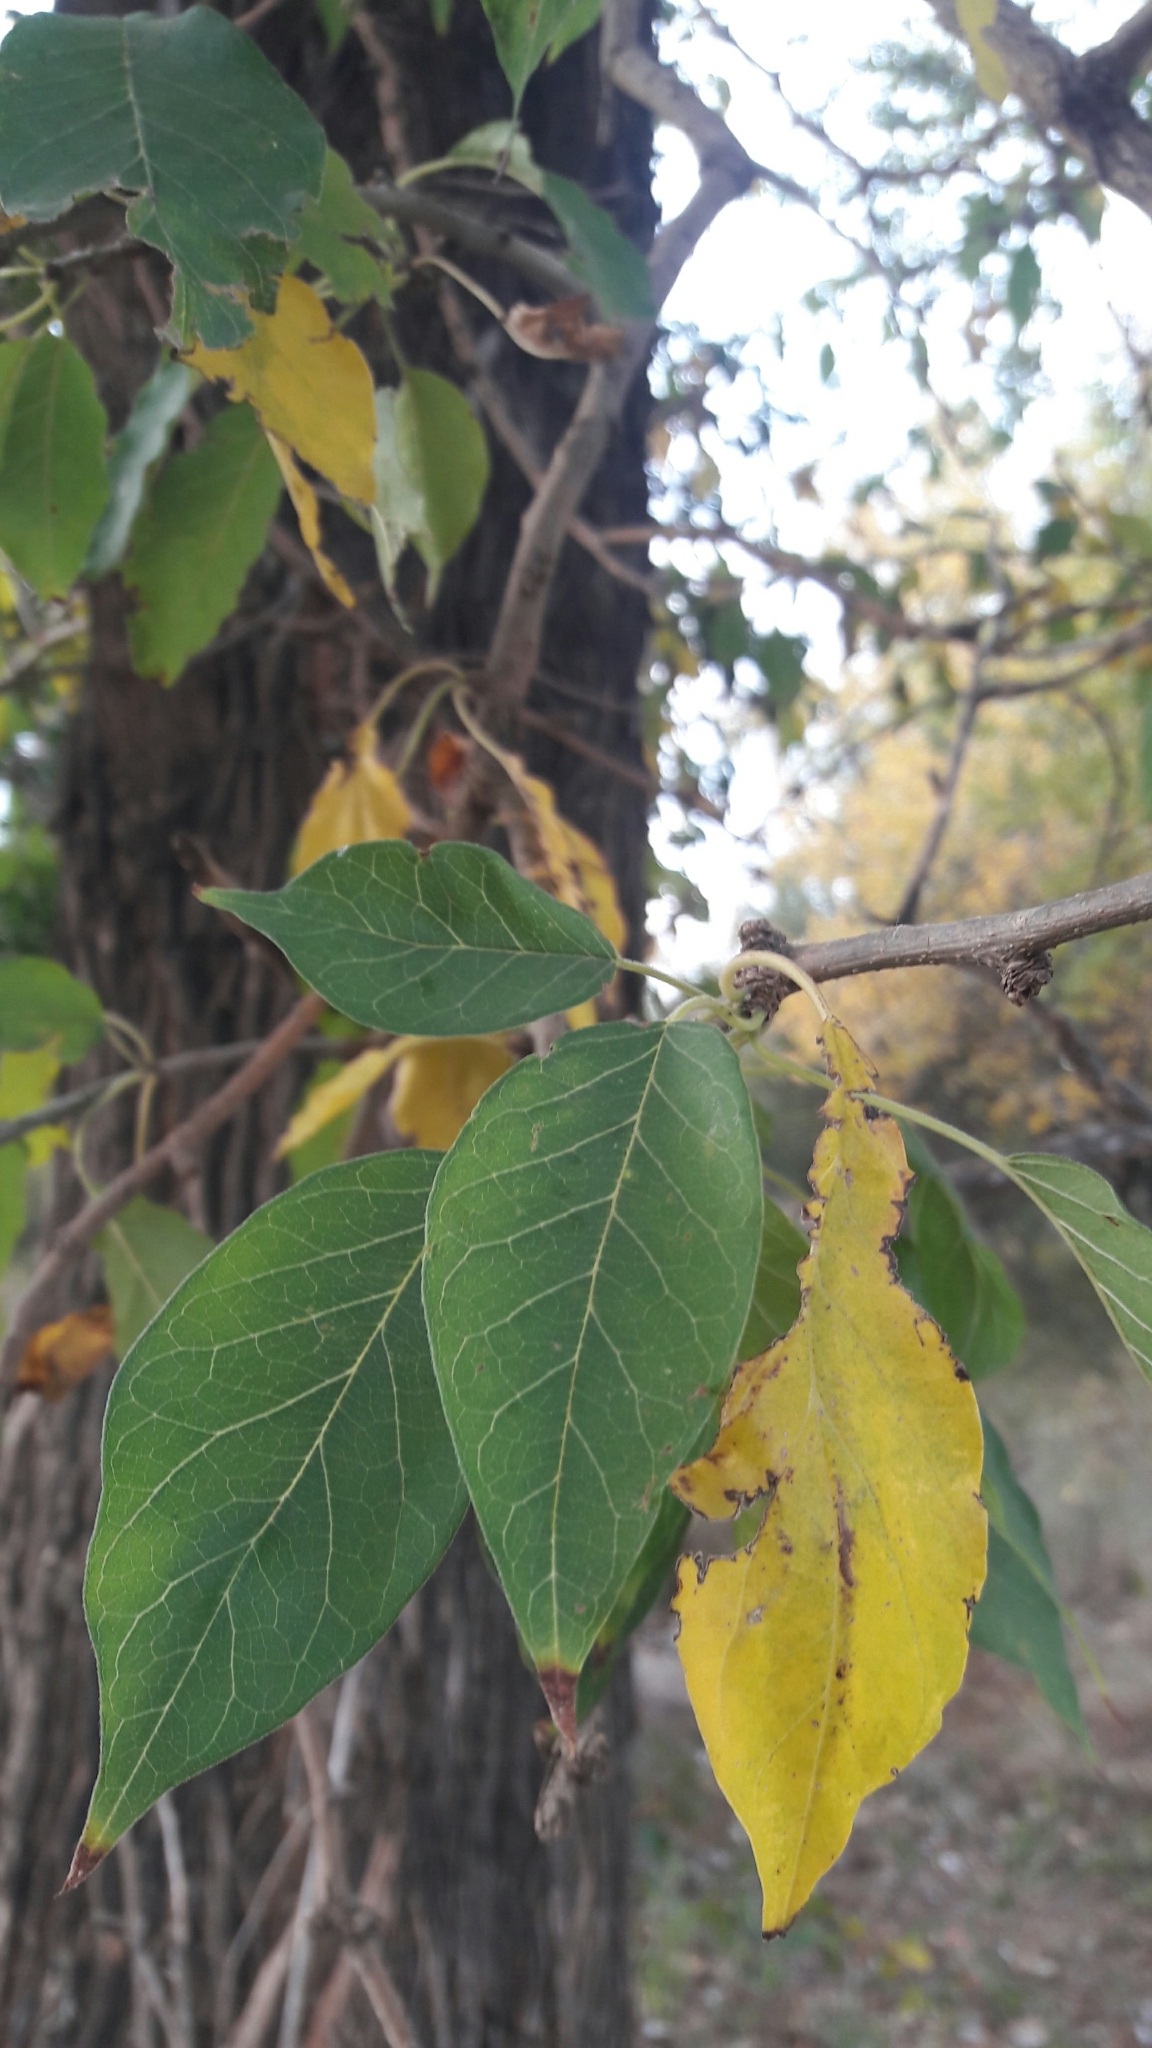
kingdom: Plantae
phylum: Tracheophyta
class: Magnoliopsida
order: Rosales
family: Moraceae
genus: Maclura
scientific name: Maclura pomifera
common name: Osage-orange
